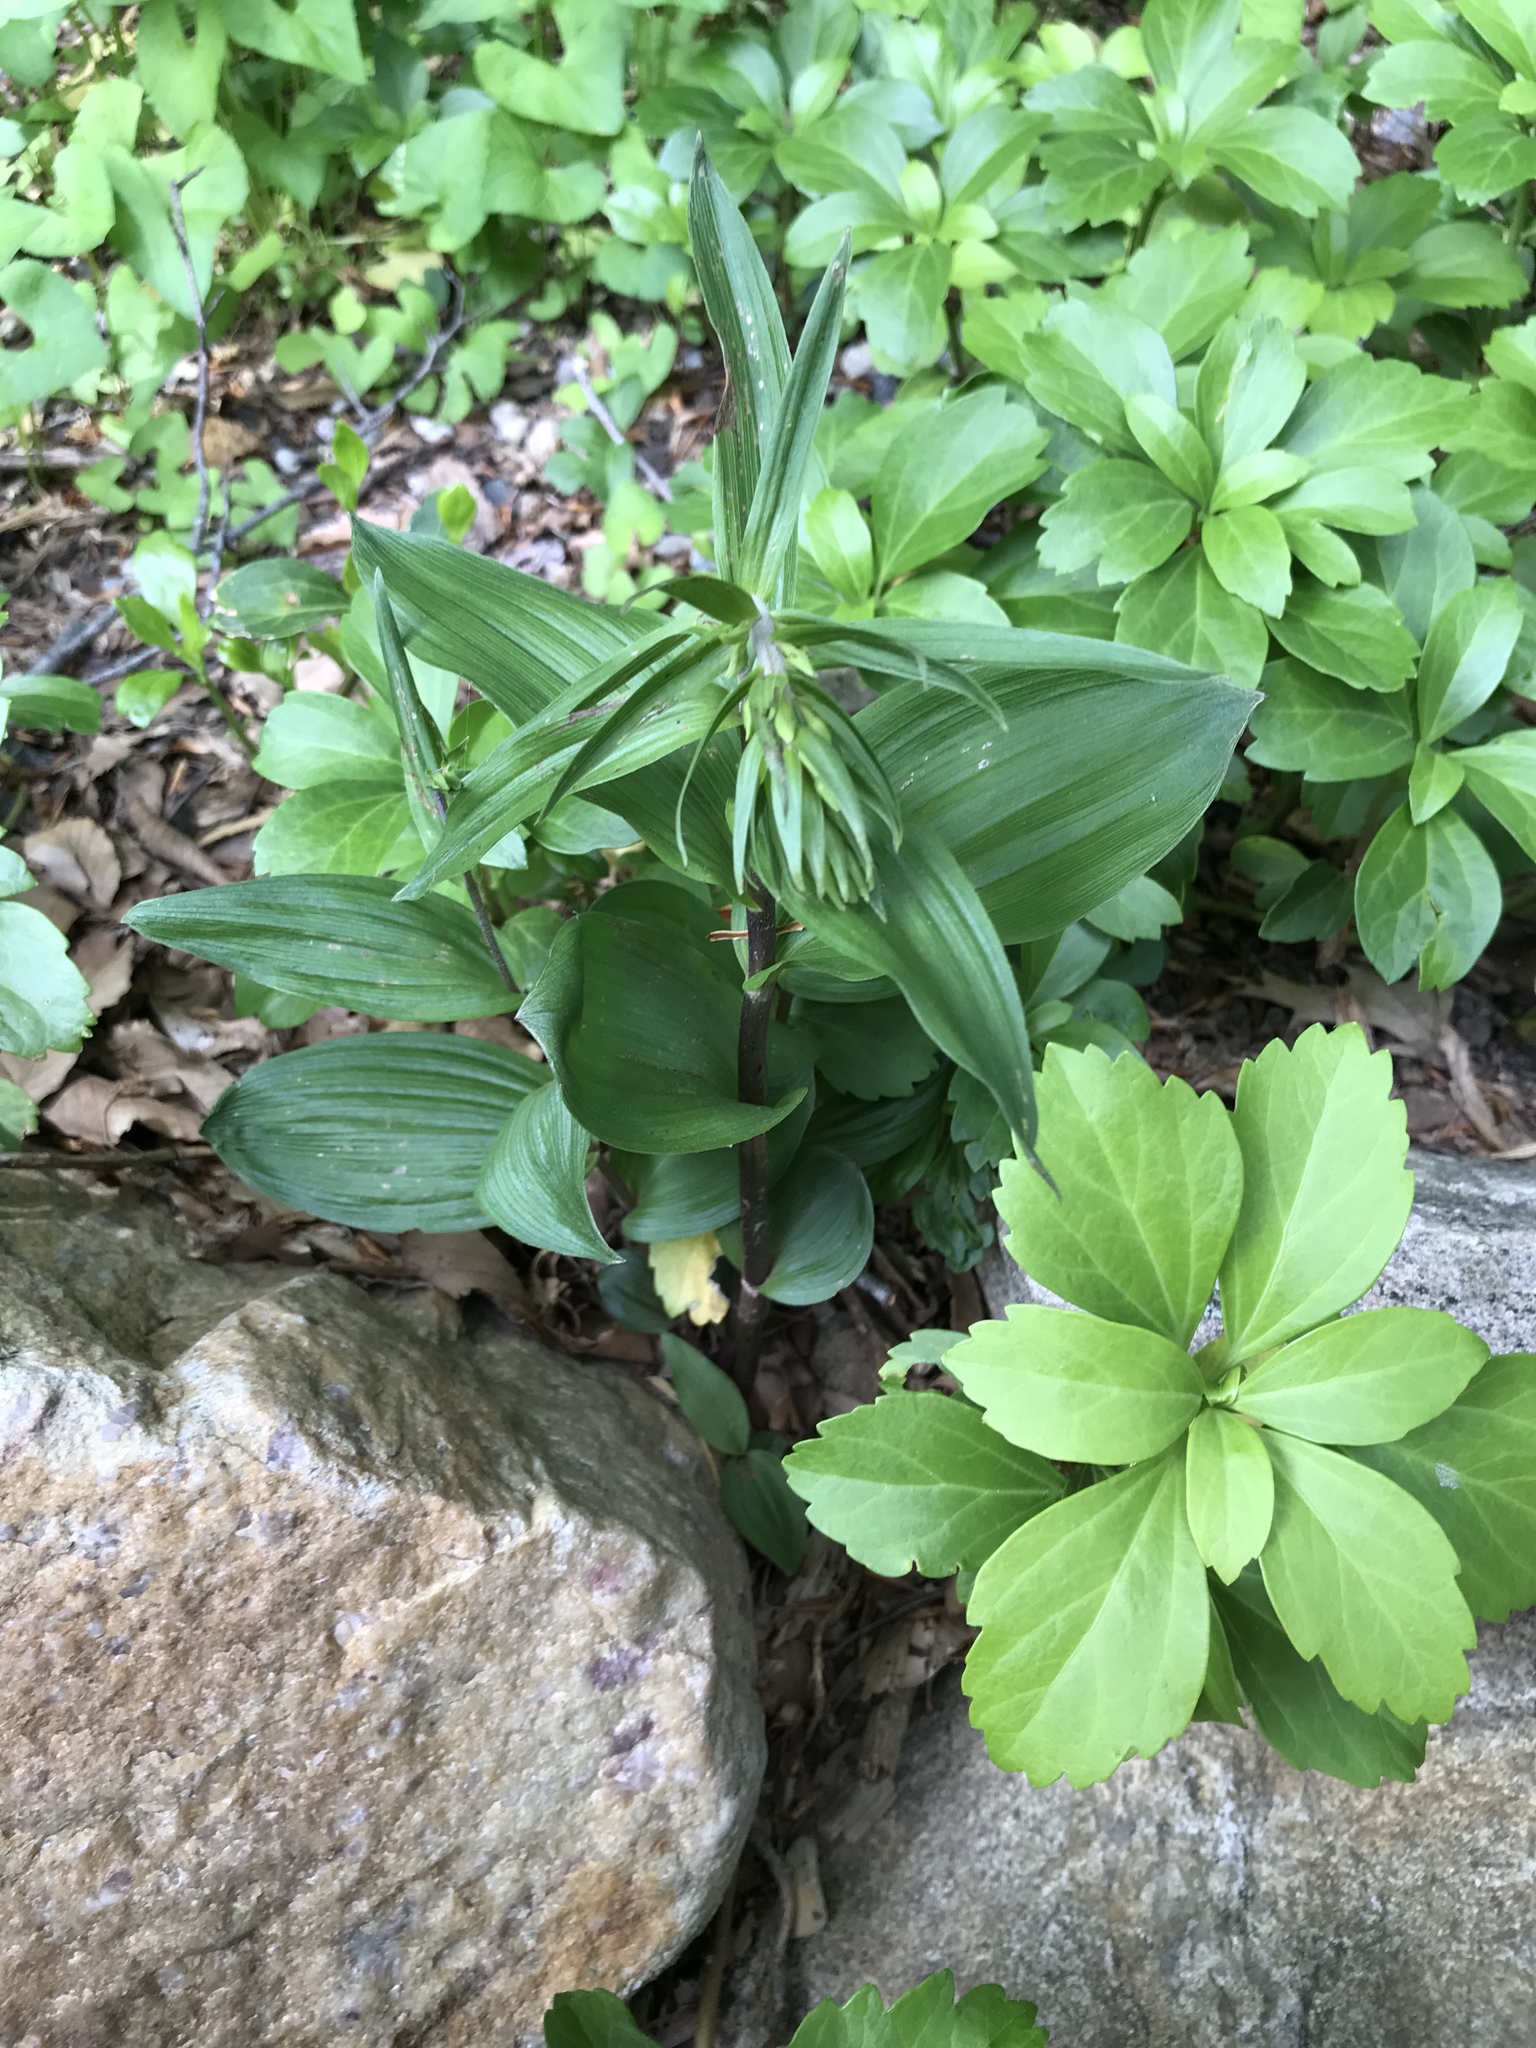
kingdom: Plantae
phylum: Tracheophyta
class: Liliopsida
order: Asparagales
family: Orchidaceae
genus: Epipactis
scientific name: Epipactis helleborine
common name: Broad-leaved helleborine
